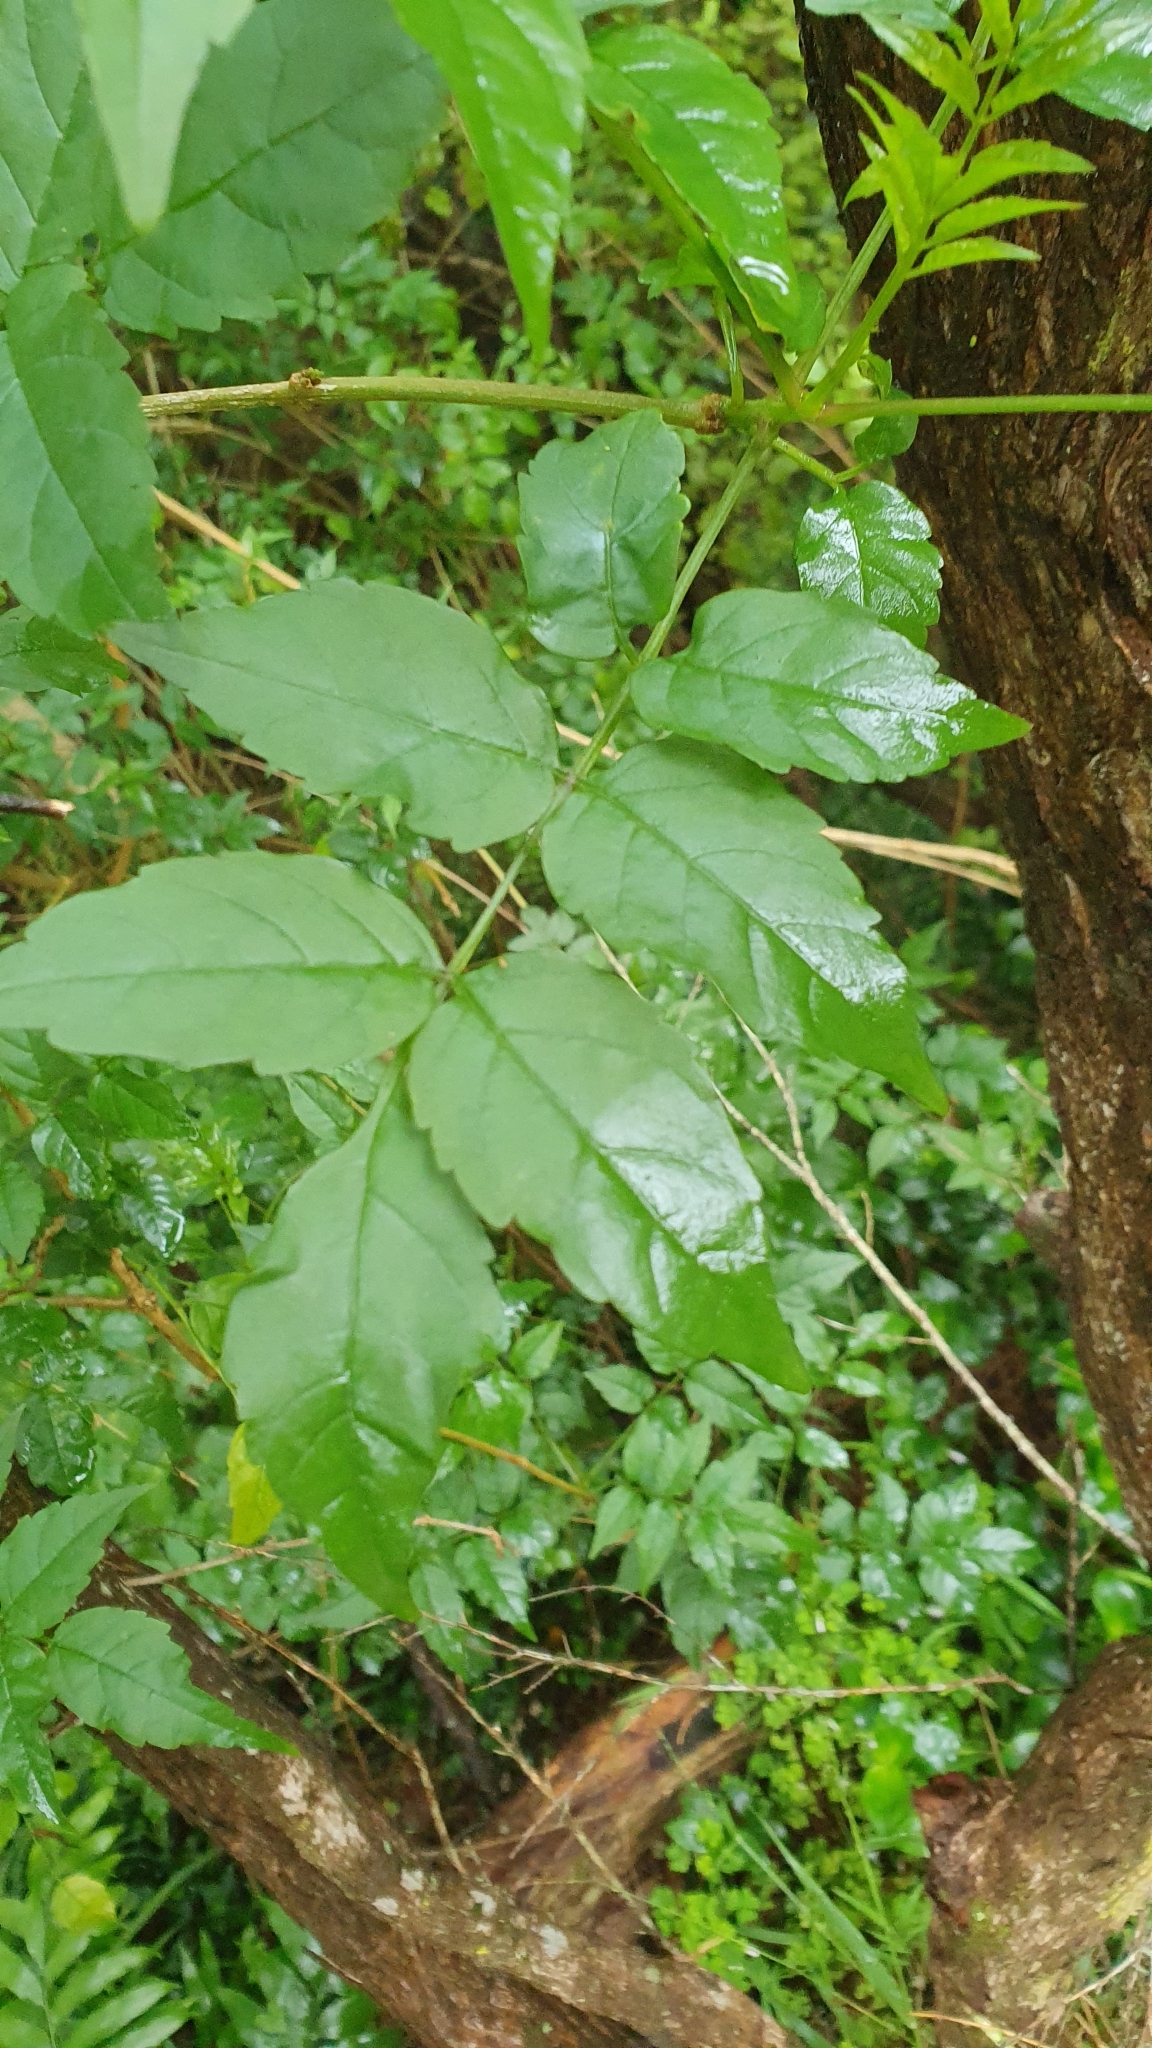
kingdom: Plantae
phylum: Tracheophyta
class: Magnoliopsida
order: Lamiales
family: Bignoniaceae
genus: Tecomaria
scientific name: Tecomaria capensis
